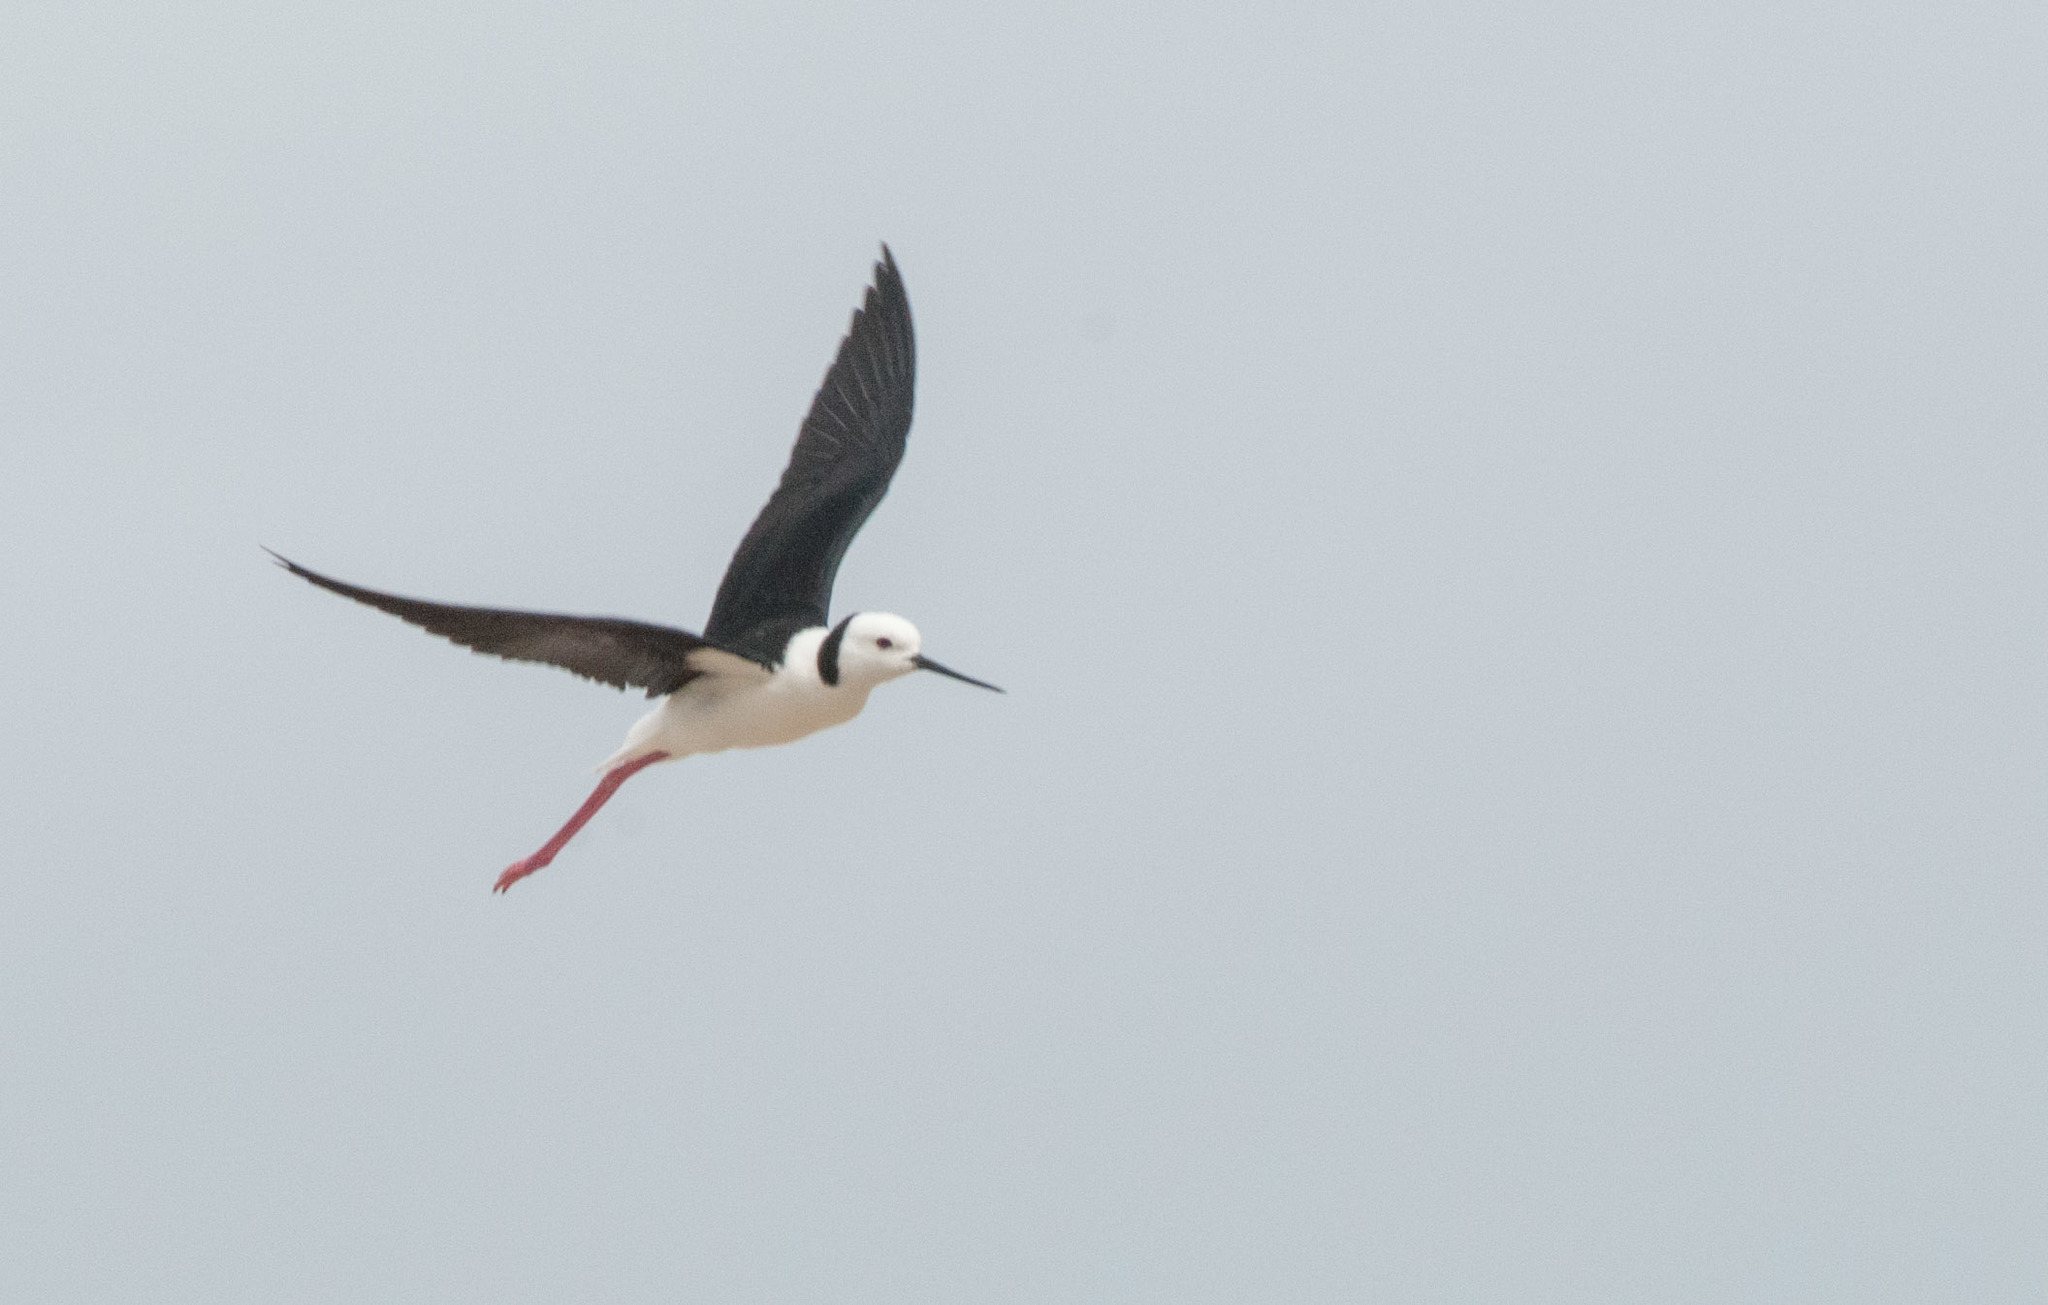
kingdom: Animalia
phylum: Chordata
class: Aves
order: Charadriiformes
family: Recurvirostridae
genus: Himantopus
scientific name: Himantopus leucocephalus
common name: White-headed stilt
